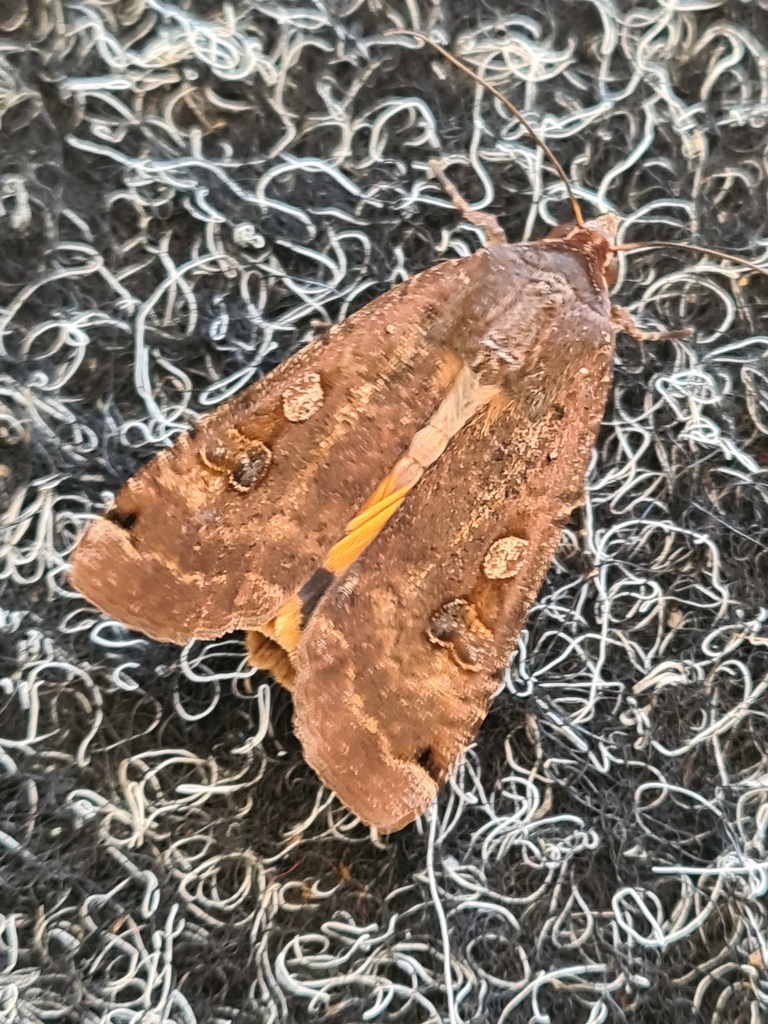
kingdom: Animalia
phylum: Arthropoda
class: Insecta
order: Lepidoptera
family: Noctuidae
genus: Noctua
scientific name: Noctua pronuba
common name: Large yellow underwing
